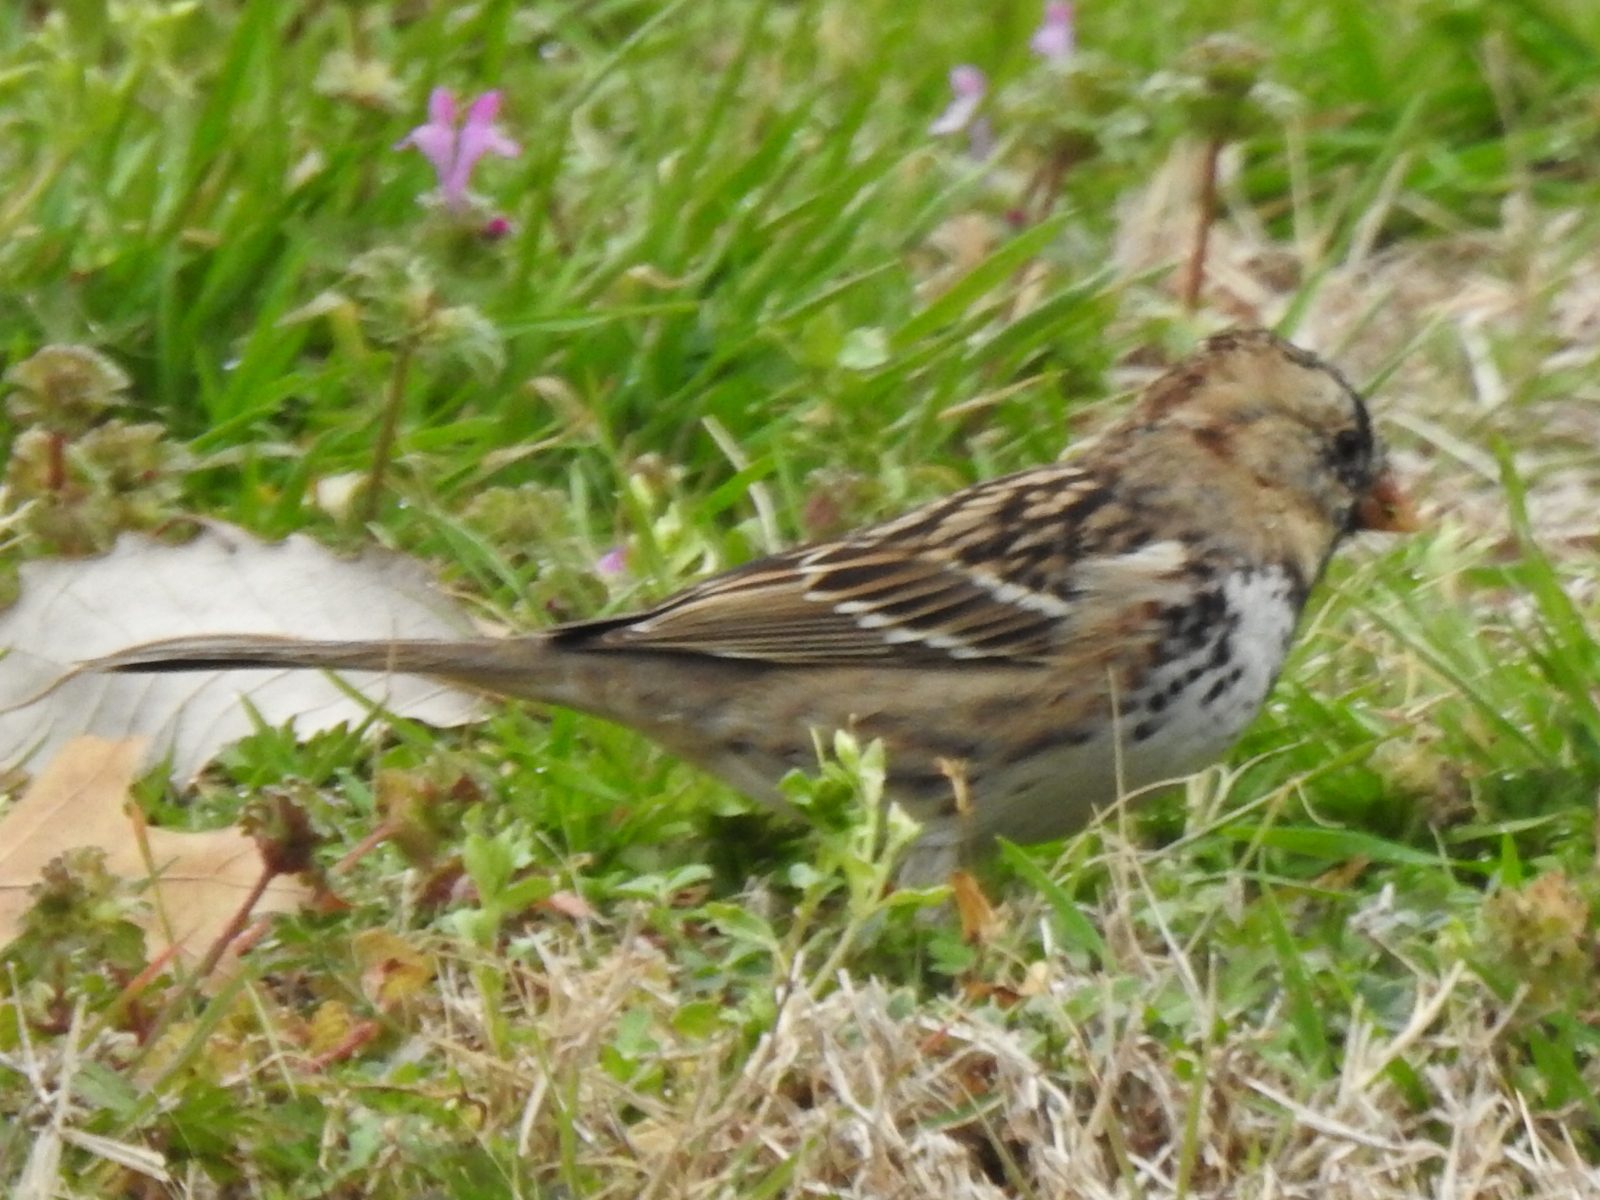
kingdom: Animalia
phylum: Chordata
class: Aves
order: Passeriformes
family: Passerellidae
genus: Zonotrichia
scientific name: Zonotrichia querula
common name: Harris's sparrow
